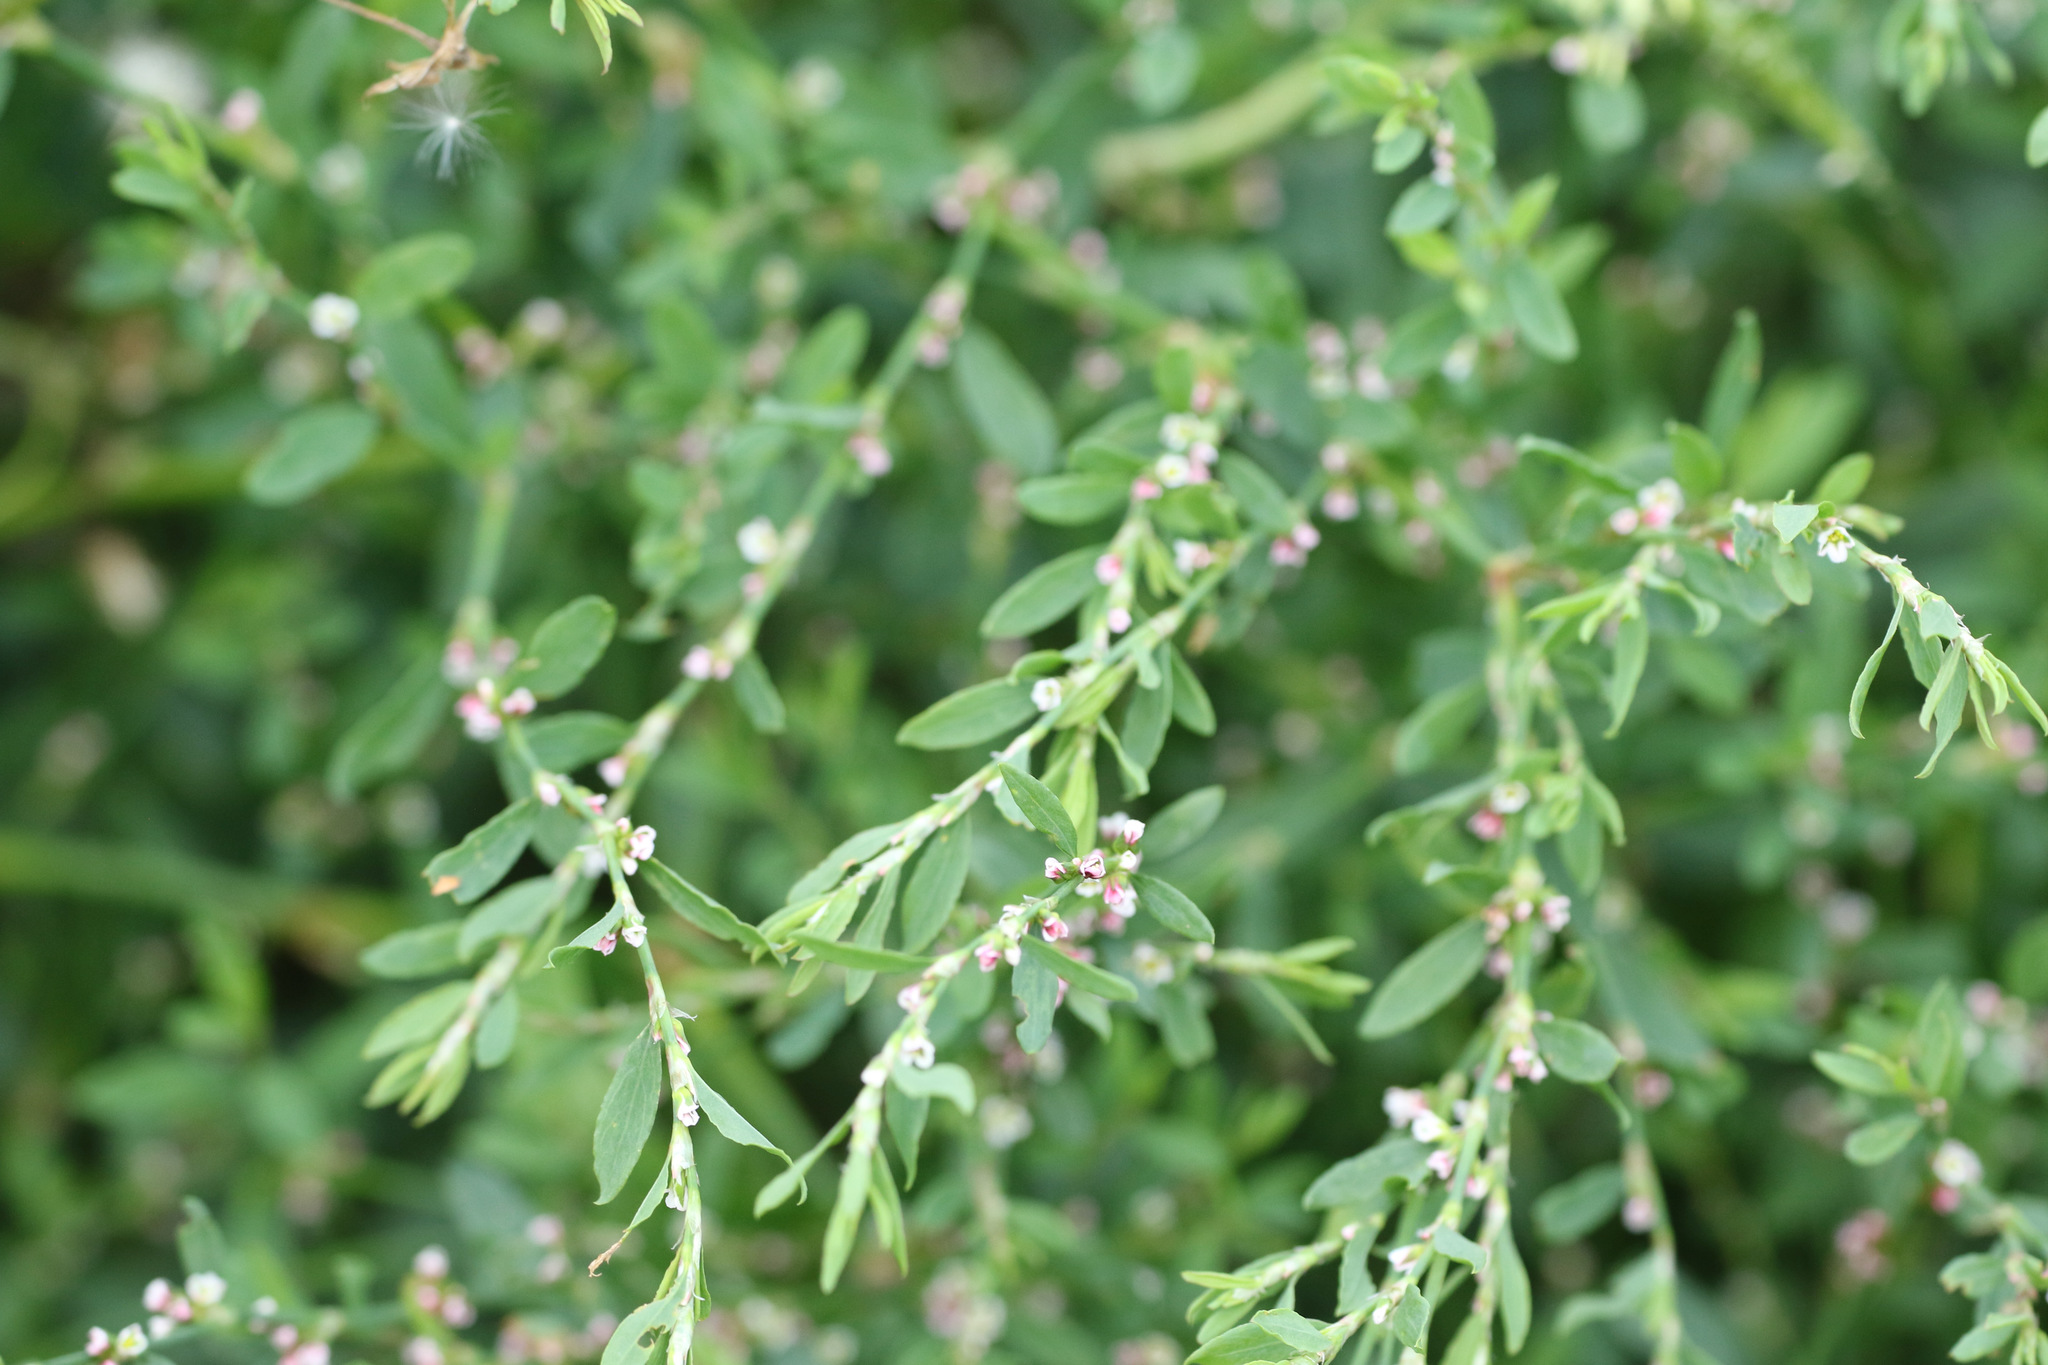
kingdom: Plantae
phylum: Tracheophyta
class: Magnoliopsida
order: Caryophyllales
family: Polygonaceae
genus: Polygonum
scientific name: Polygonum aviculare
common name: Prostrate knotweed
